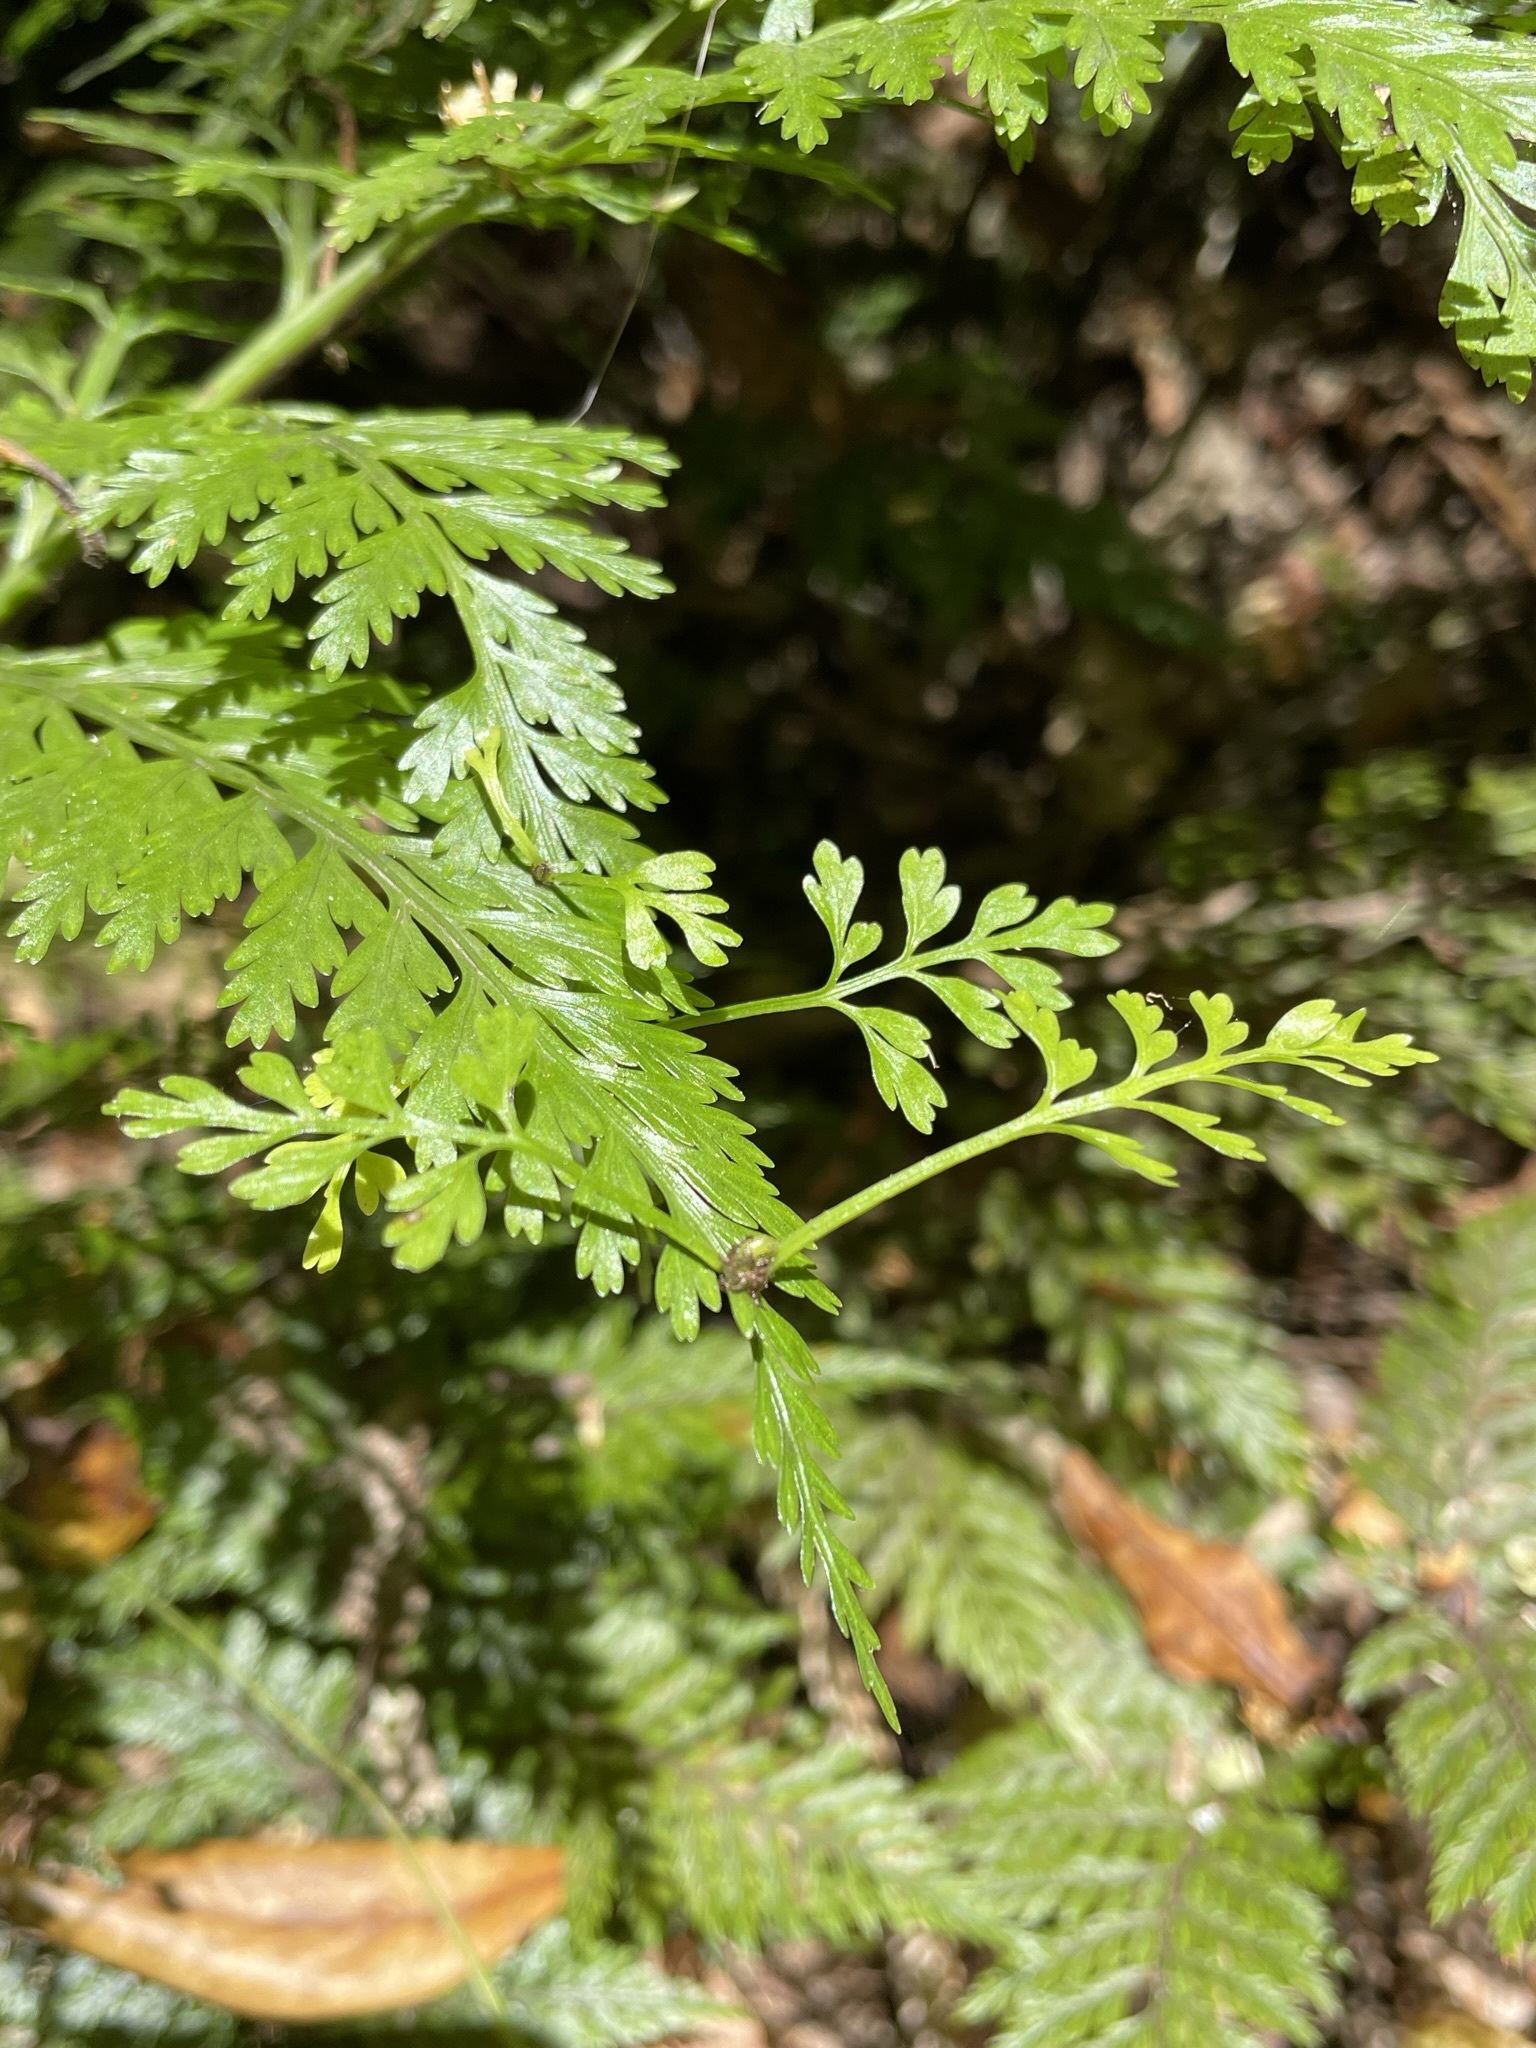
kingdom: Plantae
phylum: Tracheophyta
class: Polypodiopsida
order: Polypodiales
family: Aspleniaceae
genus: Asplenium
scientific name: Asplenium bulbiferum
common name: Mother fern
